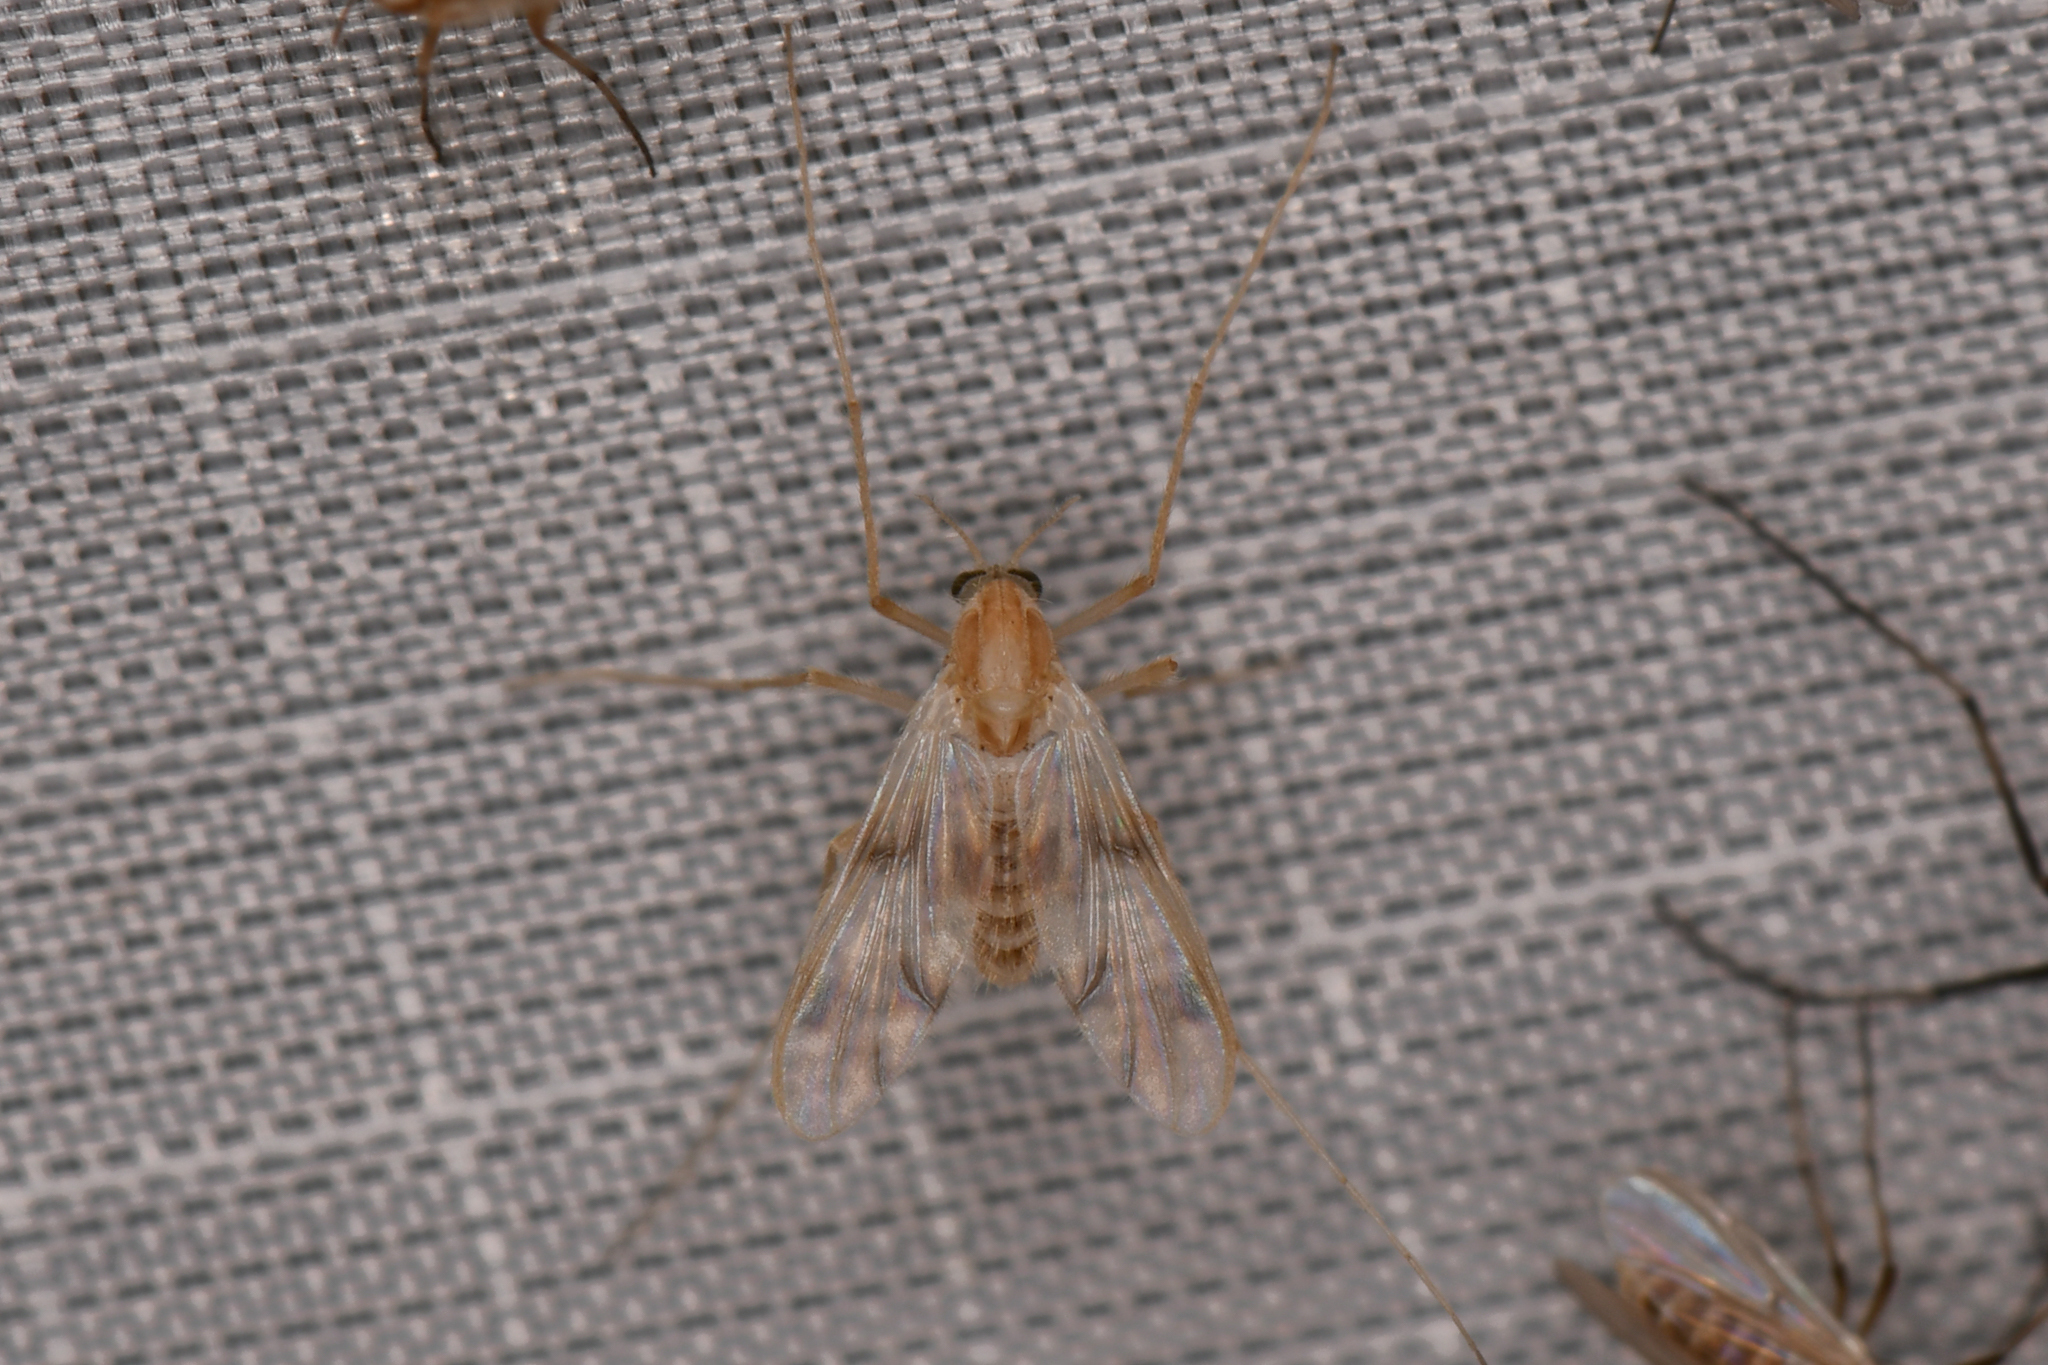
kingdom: Animalia
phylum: Arthropoda
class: Insecta
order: Diptera
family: Chironomidae
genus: Thienemannimyia
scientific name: Thienemannimyia fusciceps
